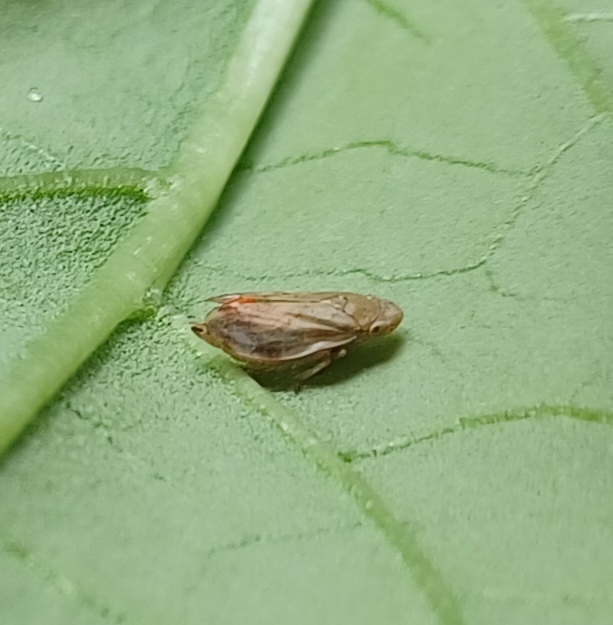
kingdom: Animalia
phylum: Arthropoda
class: Insecta
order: Hemiptera
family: Aphrophoridae
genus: Philaenus
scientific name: Philaenus spumarius
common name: Meadow spittlebug
